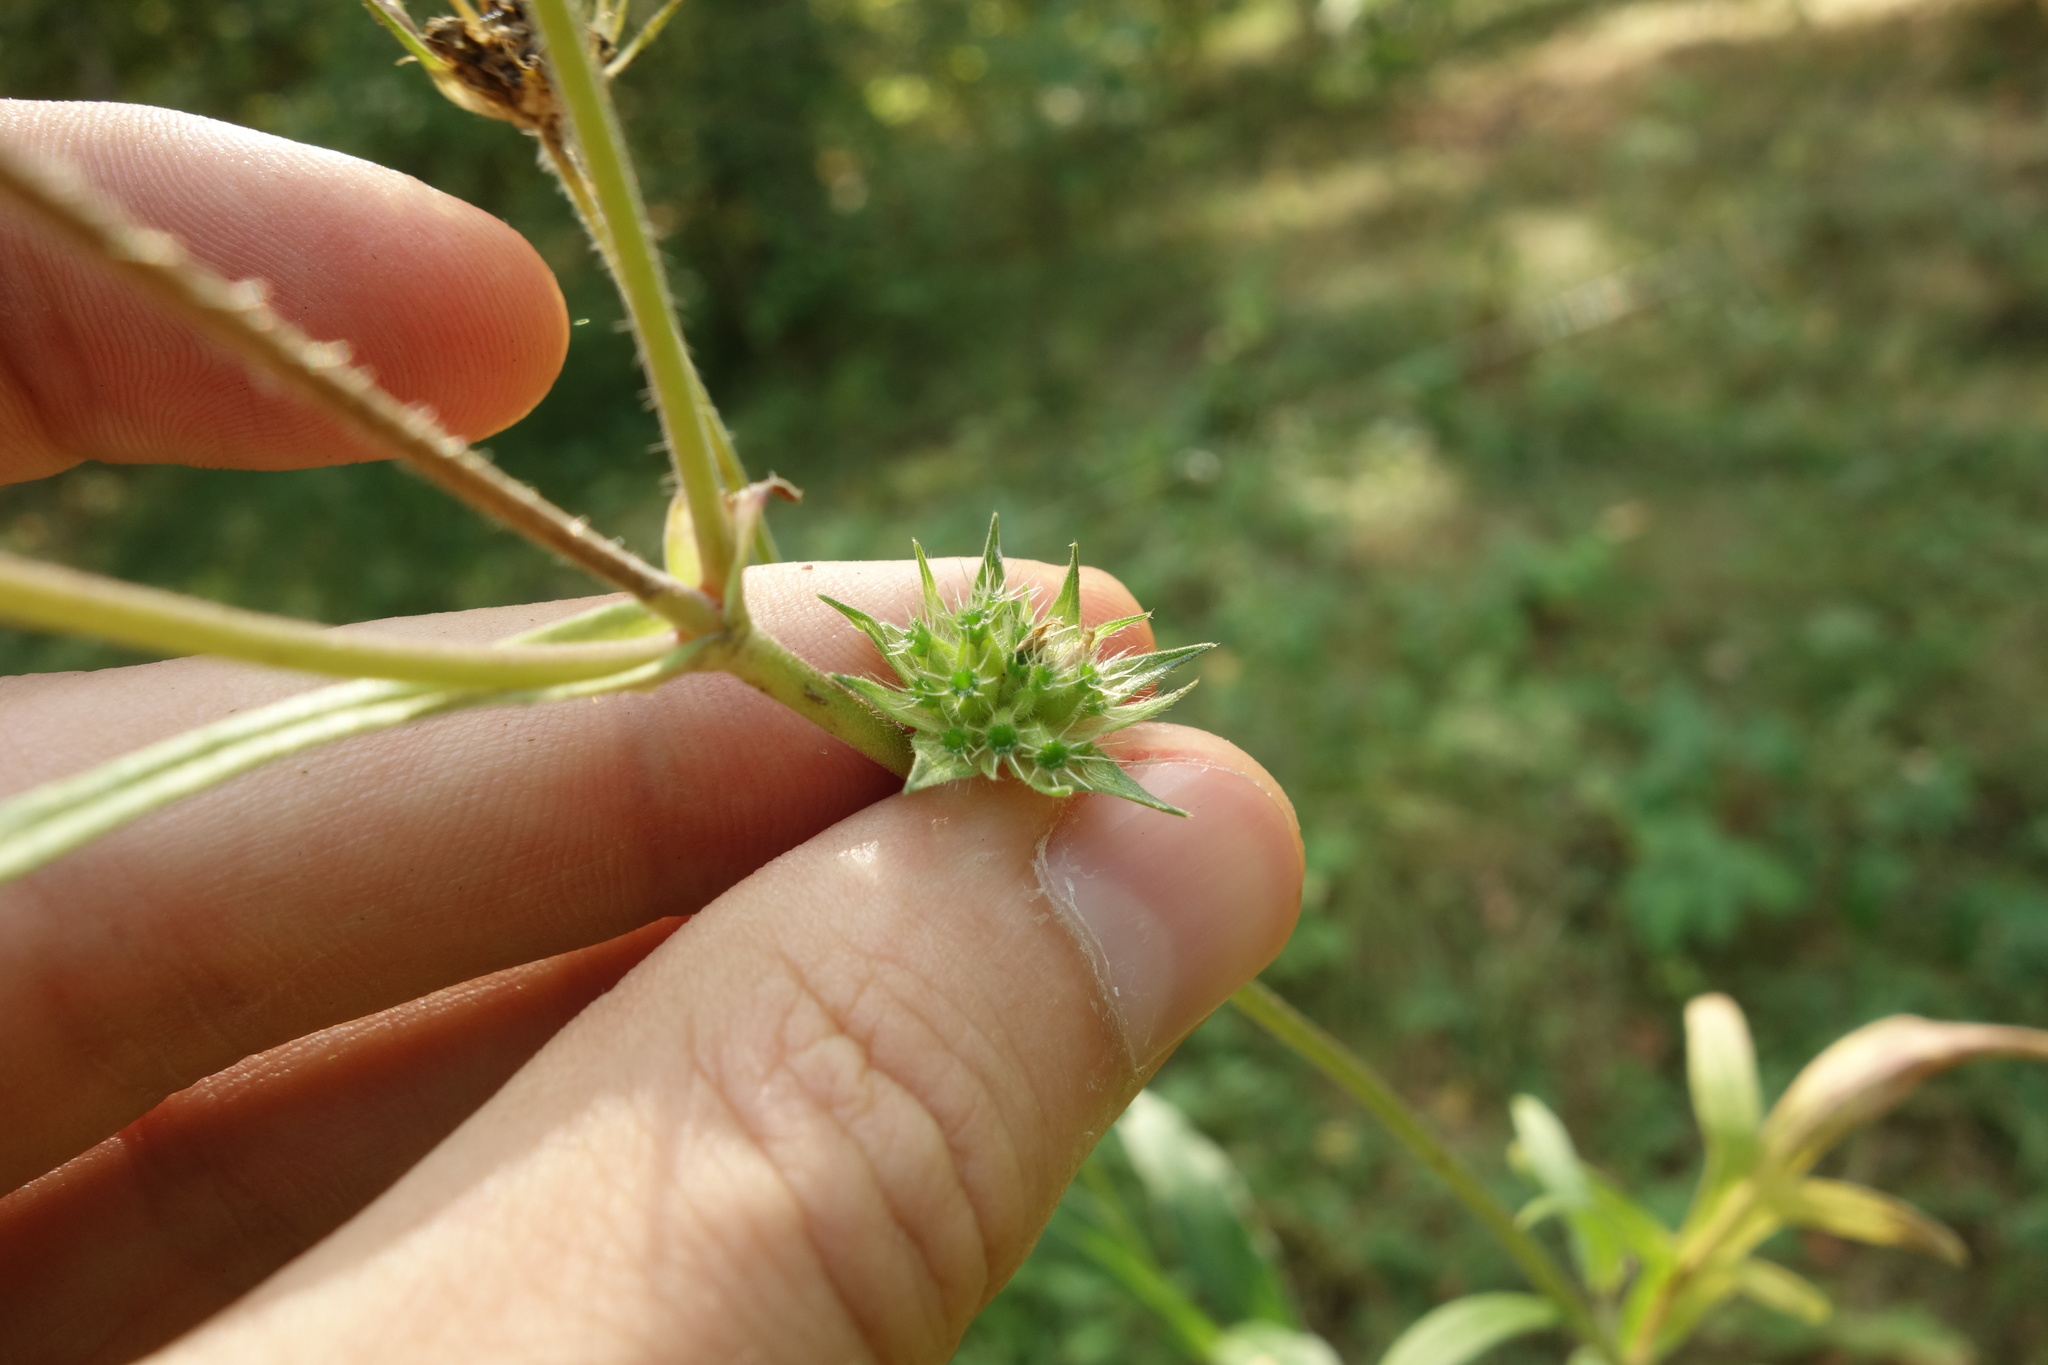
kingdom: Plantae
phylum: Tracheophyta
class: Magnoliopsida
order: Dipsacales
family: Caprifoliaceae
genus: Knautia
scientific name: Knautia arvensis
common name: Field scabiosa
